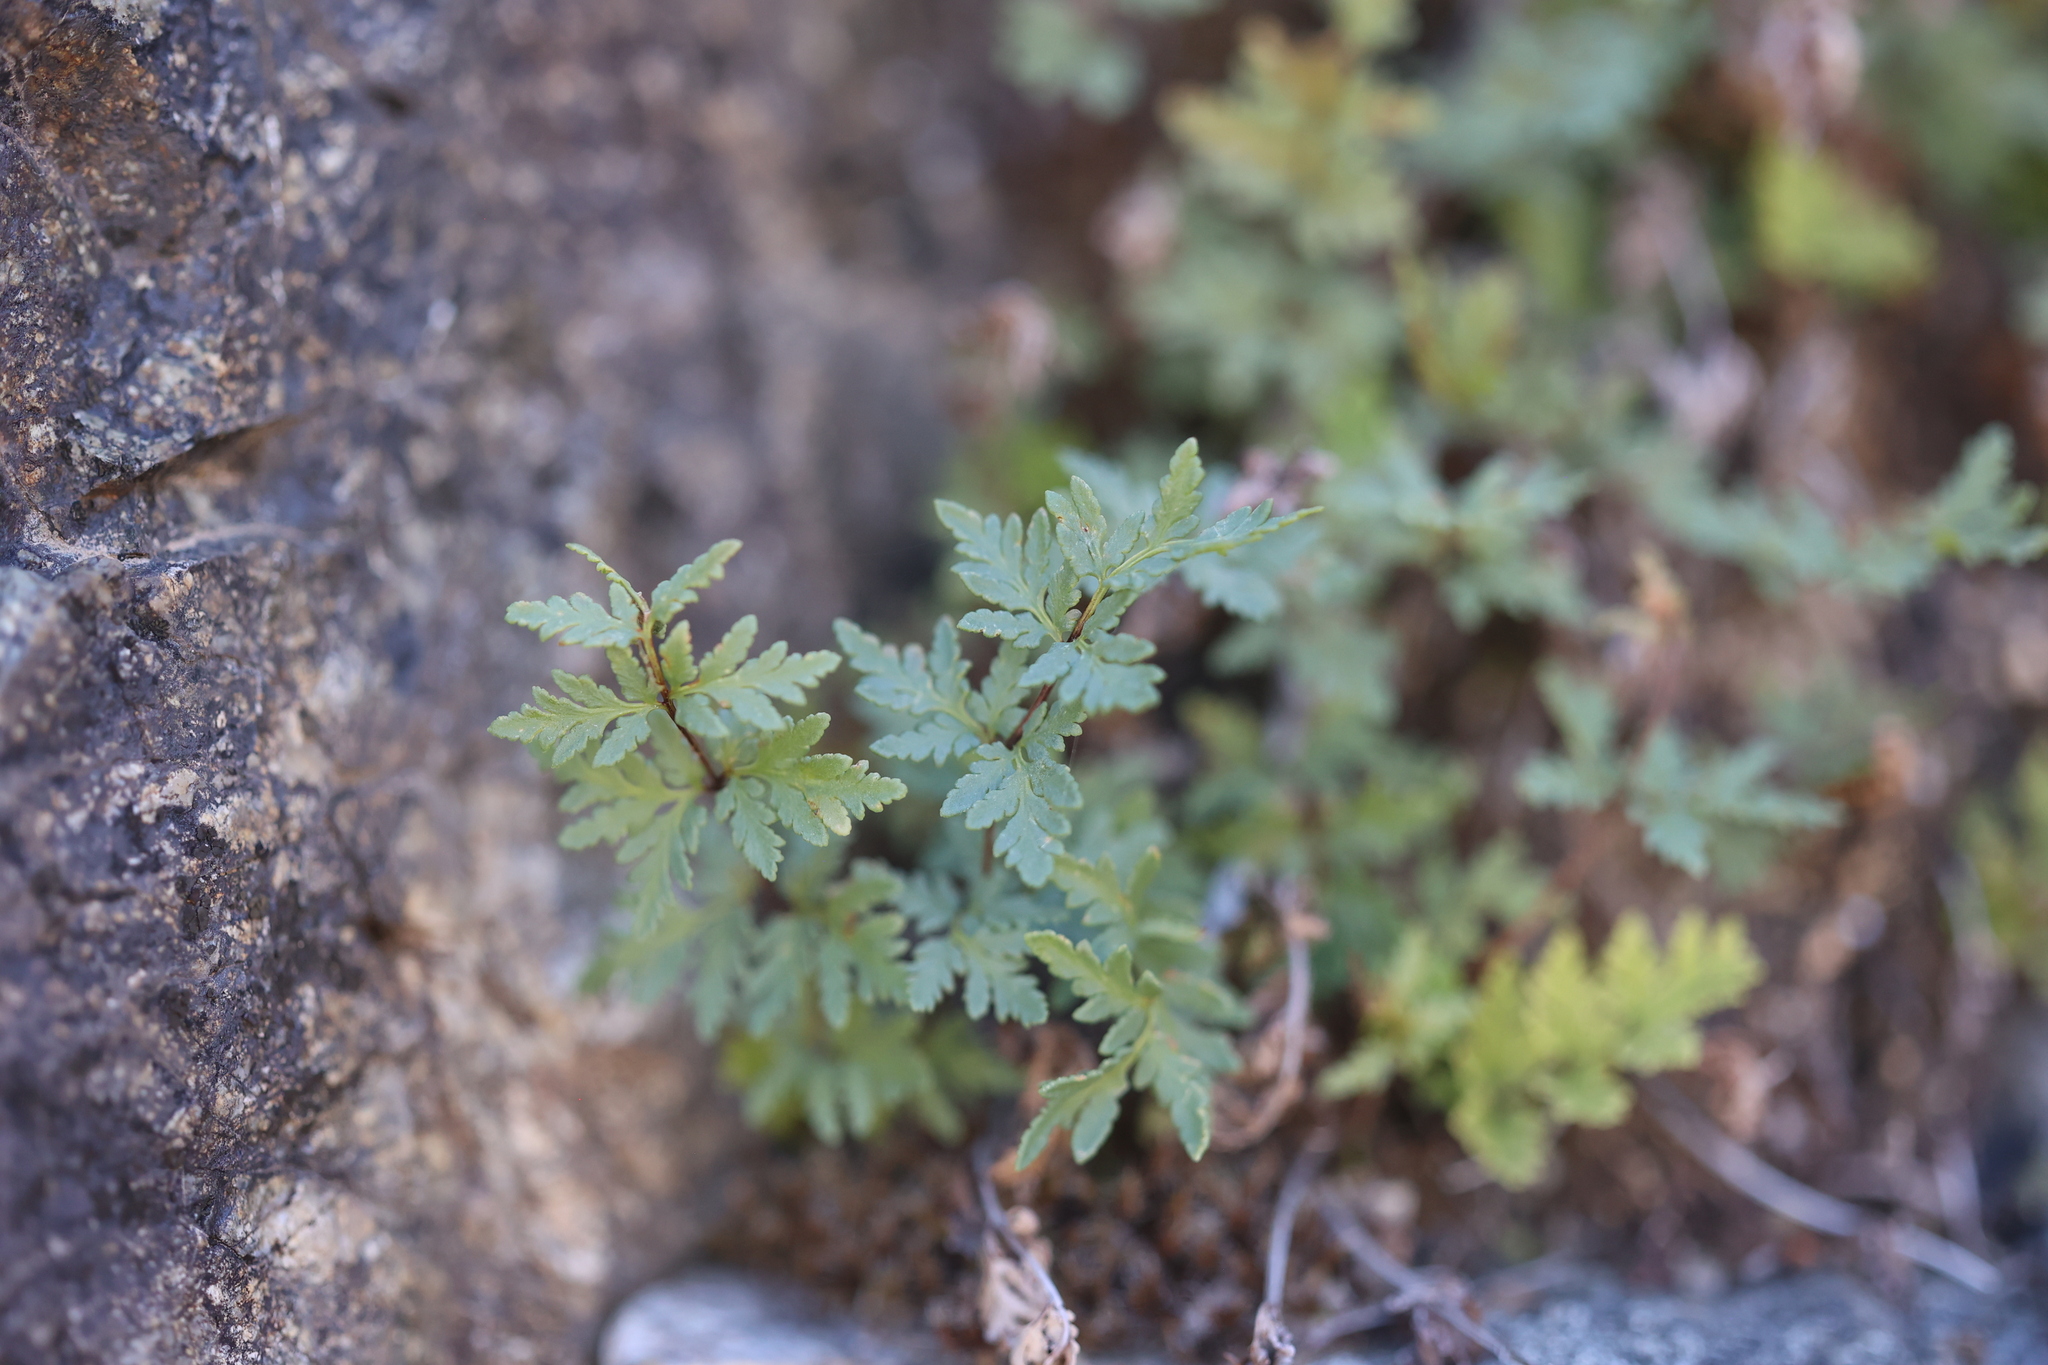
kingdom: Plantae
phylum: Tracheophyta
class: Polypodiopsida
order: Polypodiales
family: Pteridaceae
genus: Myriopteris
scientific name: Myriopteris wrightii
